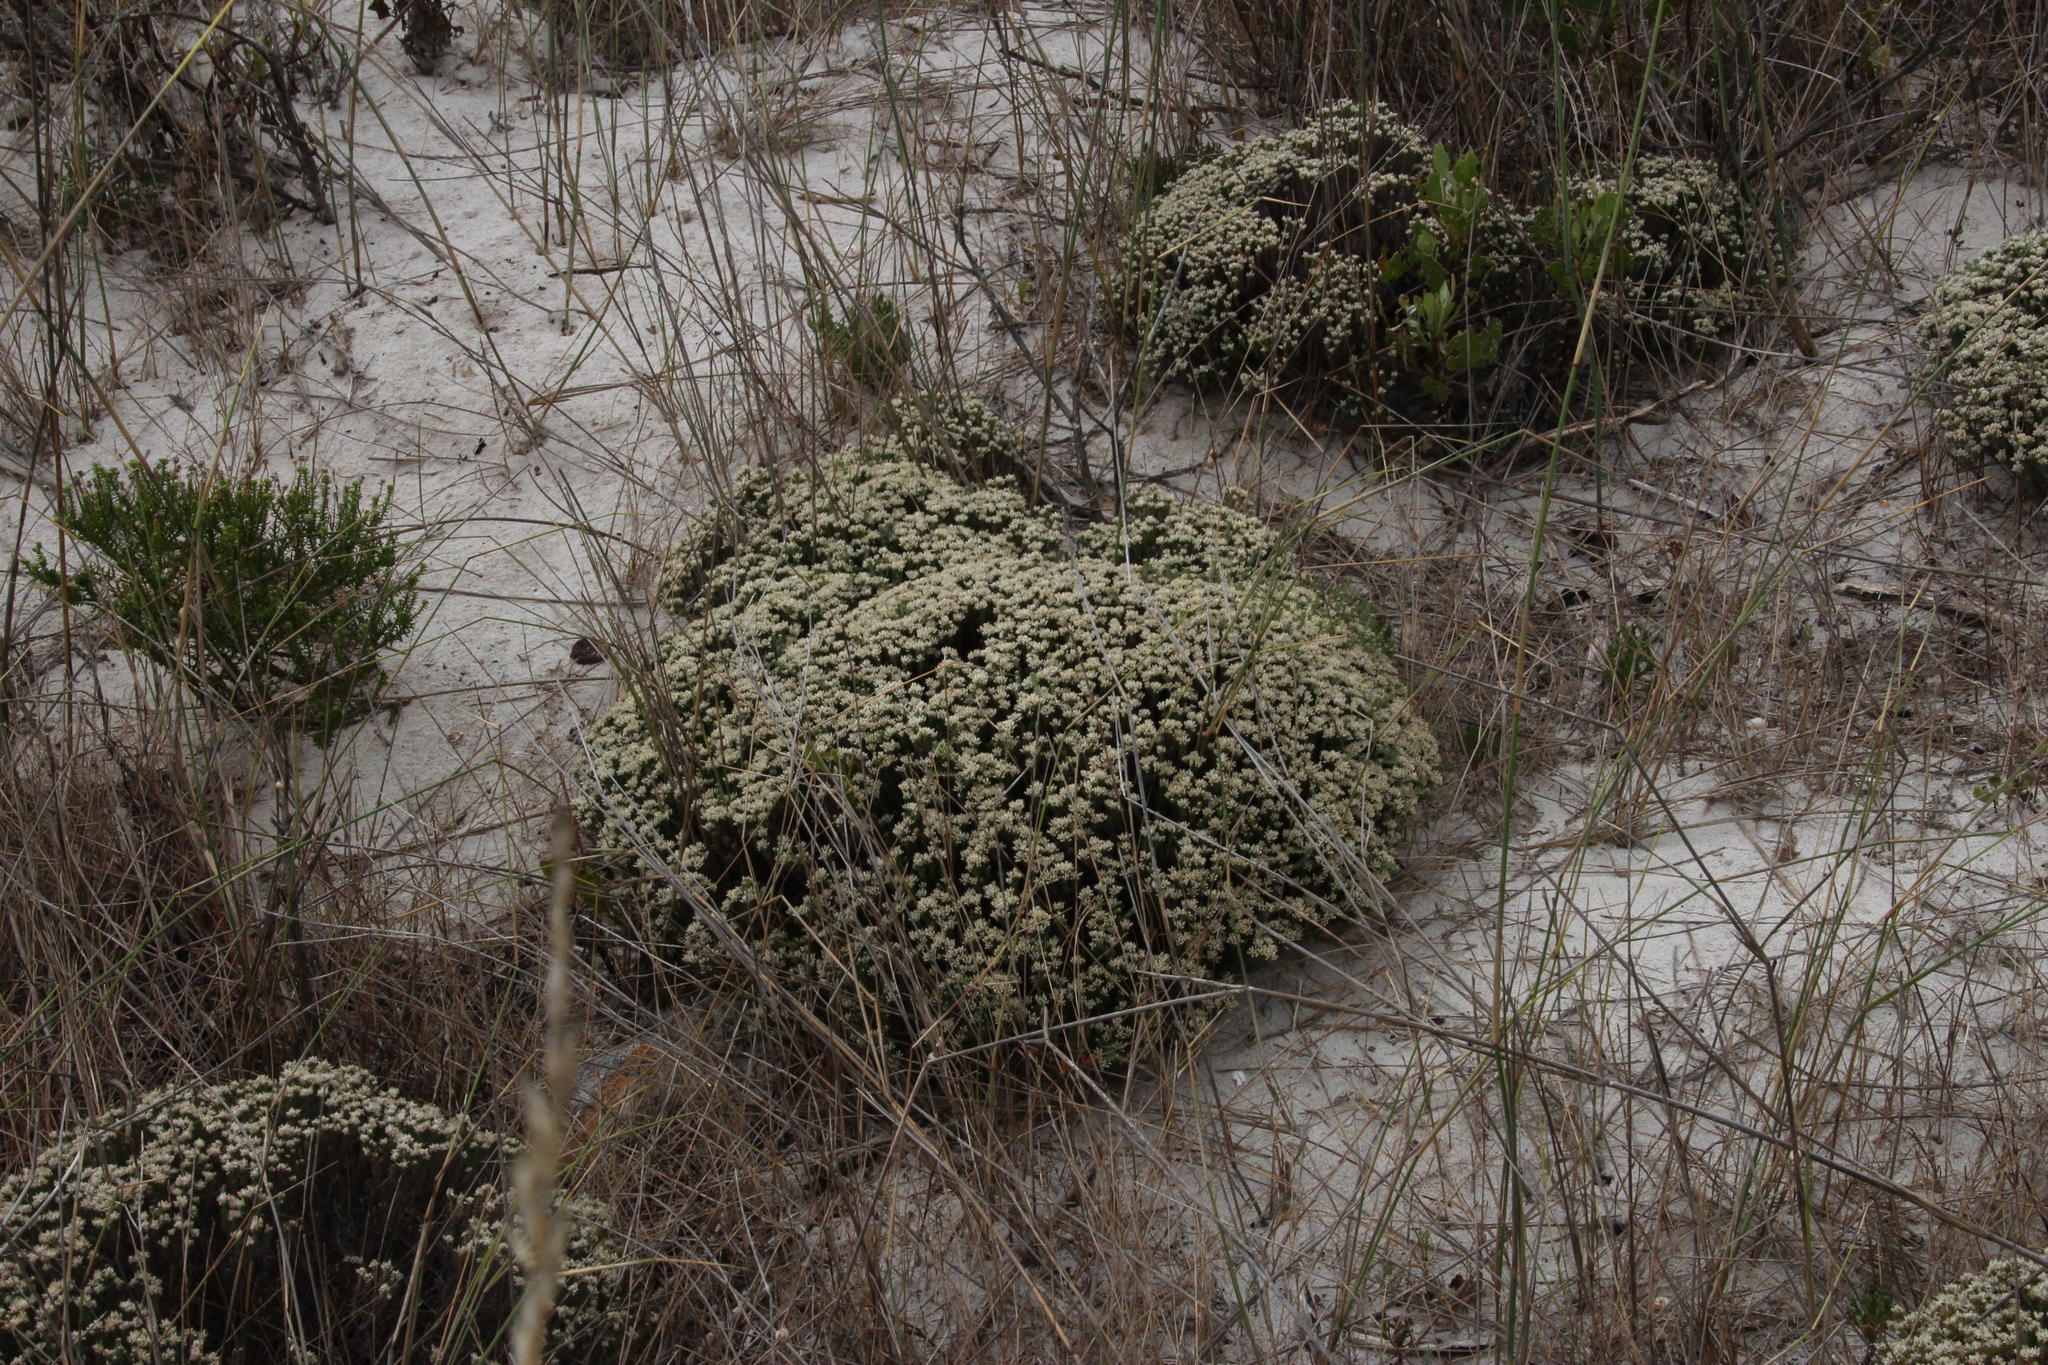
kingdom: Plantae
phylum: Tracheophyta
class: Liliopsida
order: Poales
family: Poaceae
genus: Ehrharta
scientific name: Ehrharta villosa
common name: Pyp grass
